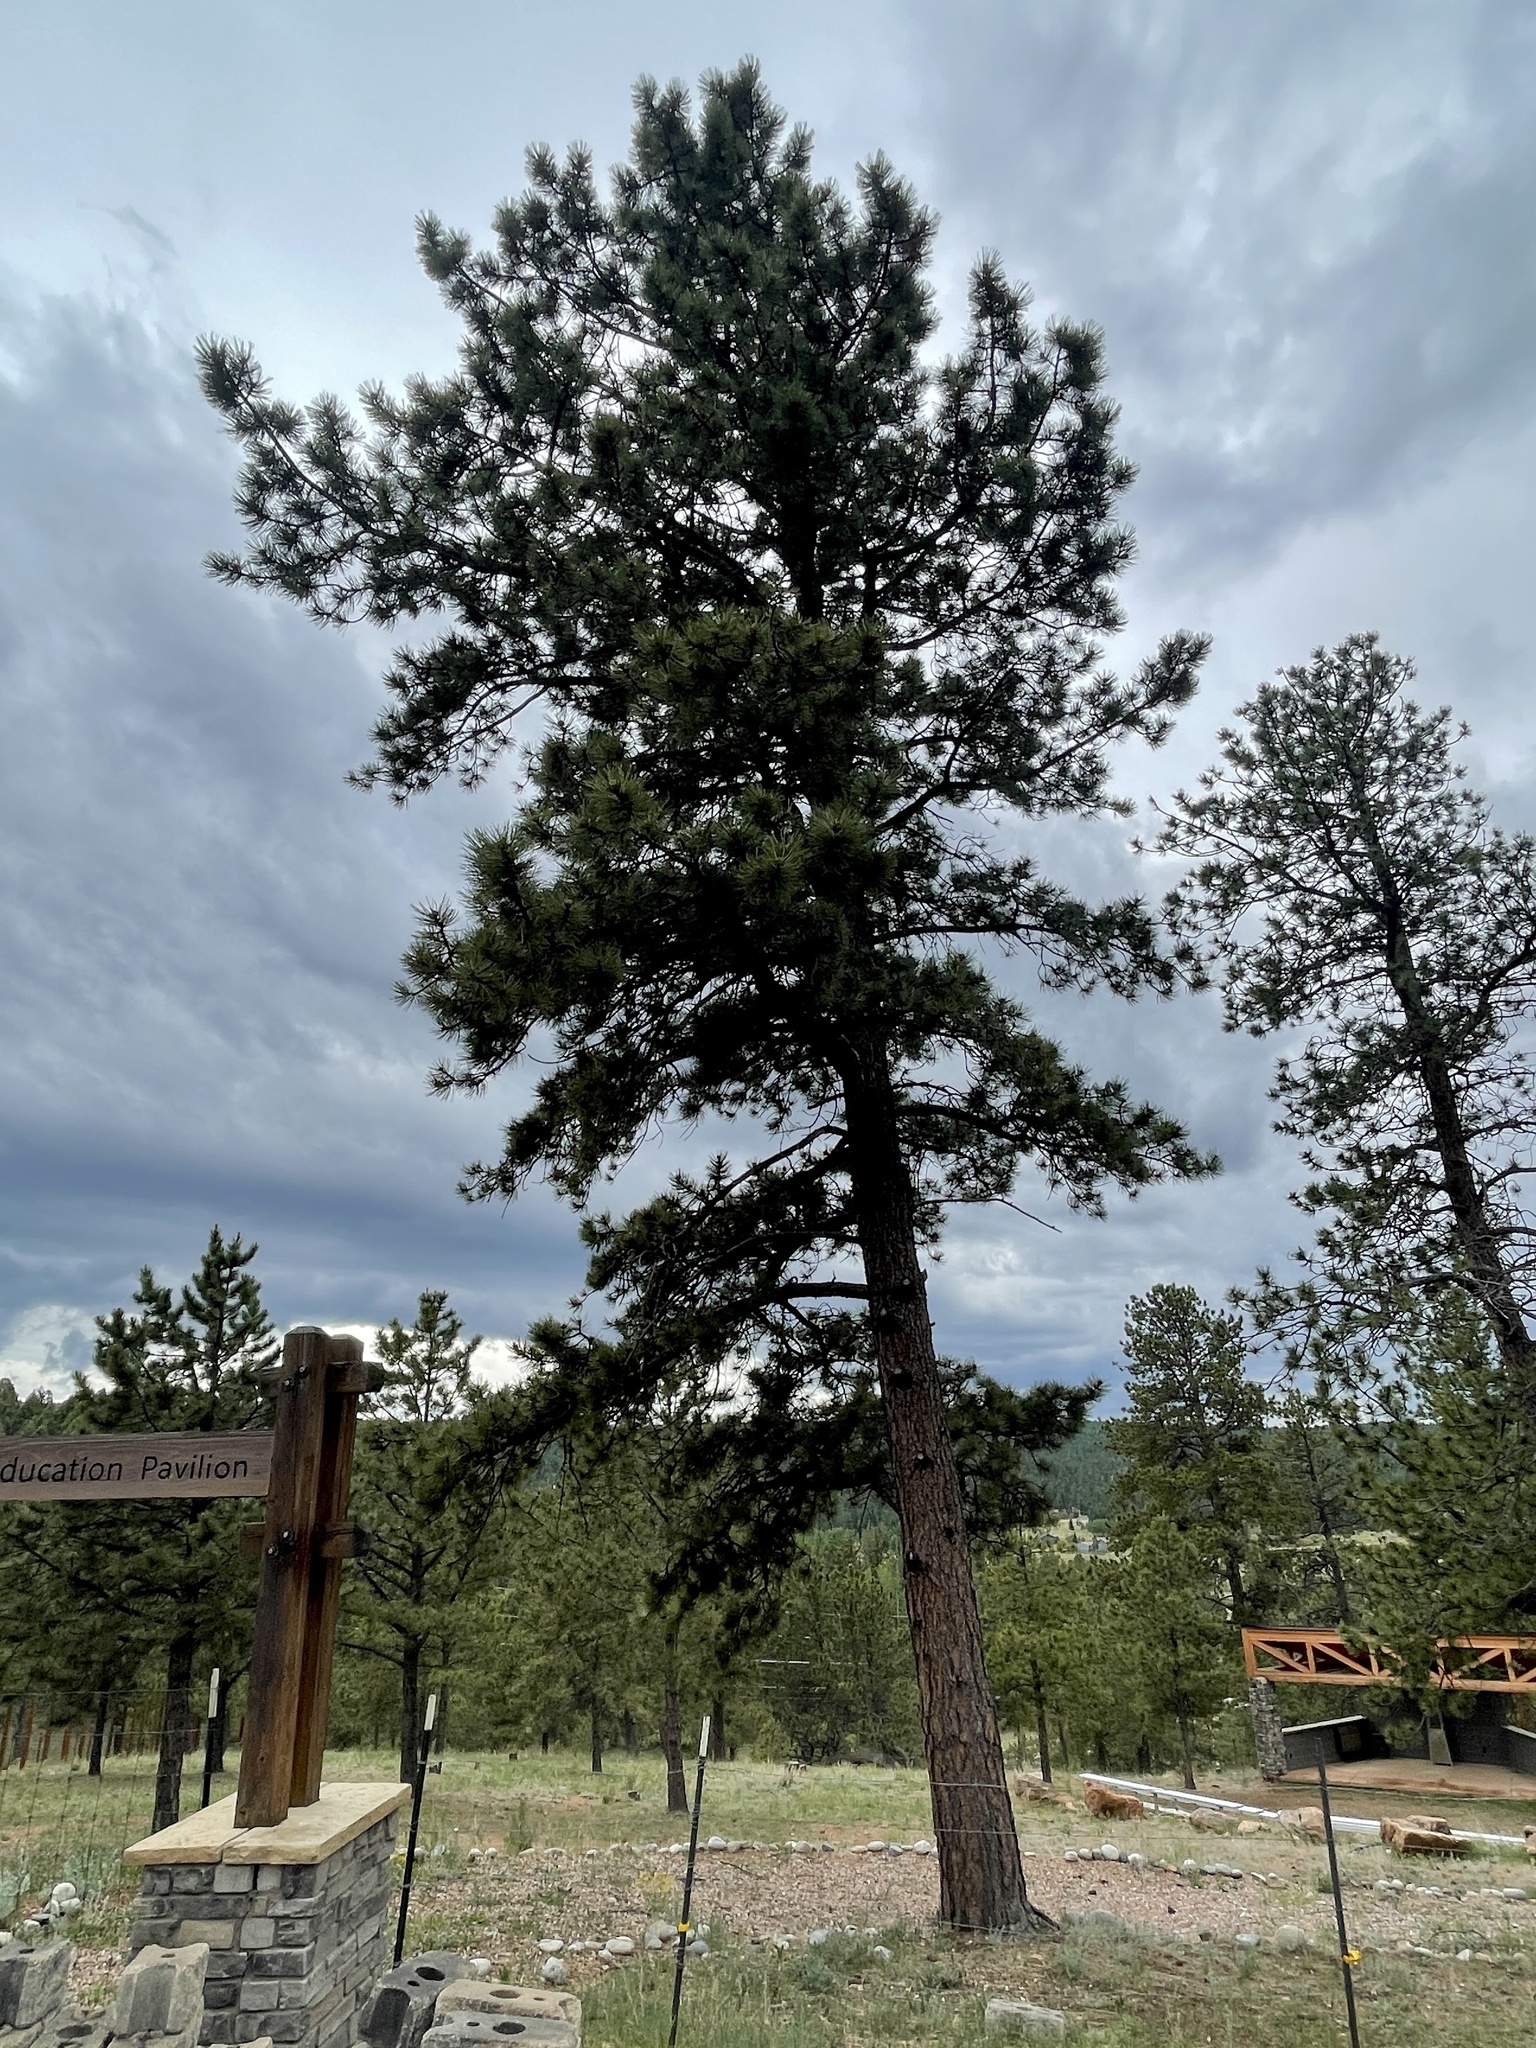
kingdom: Plantae
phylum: Tracheophyta
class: Pinopsida
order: Pinales
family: Pinaceae
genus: Pinus
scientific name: Pinus ponderosa
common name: Western yellow-pine
